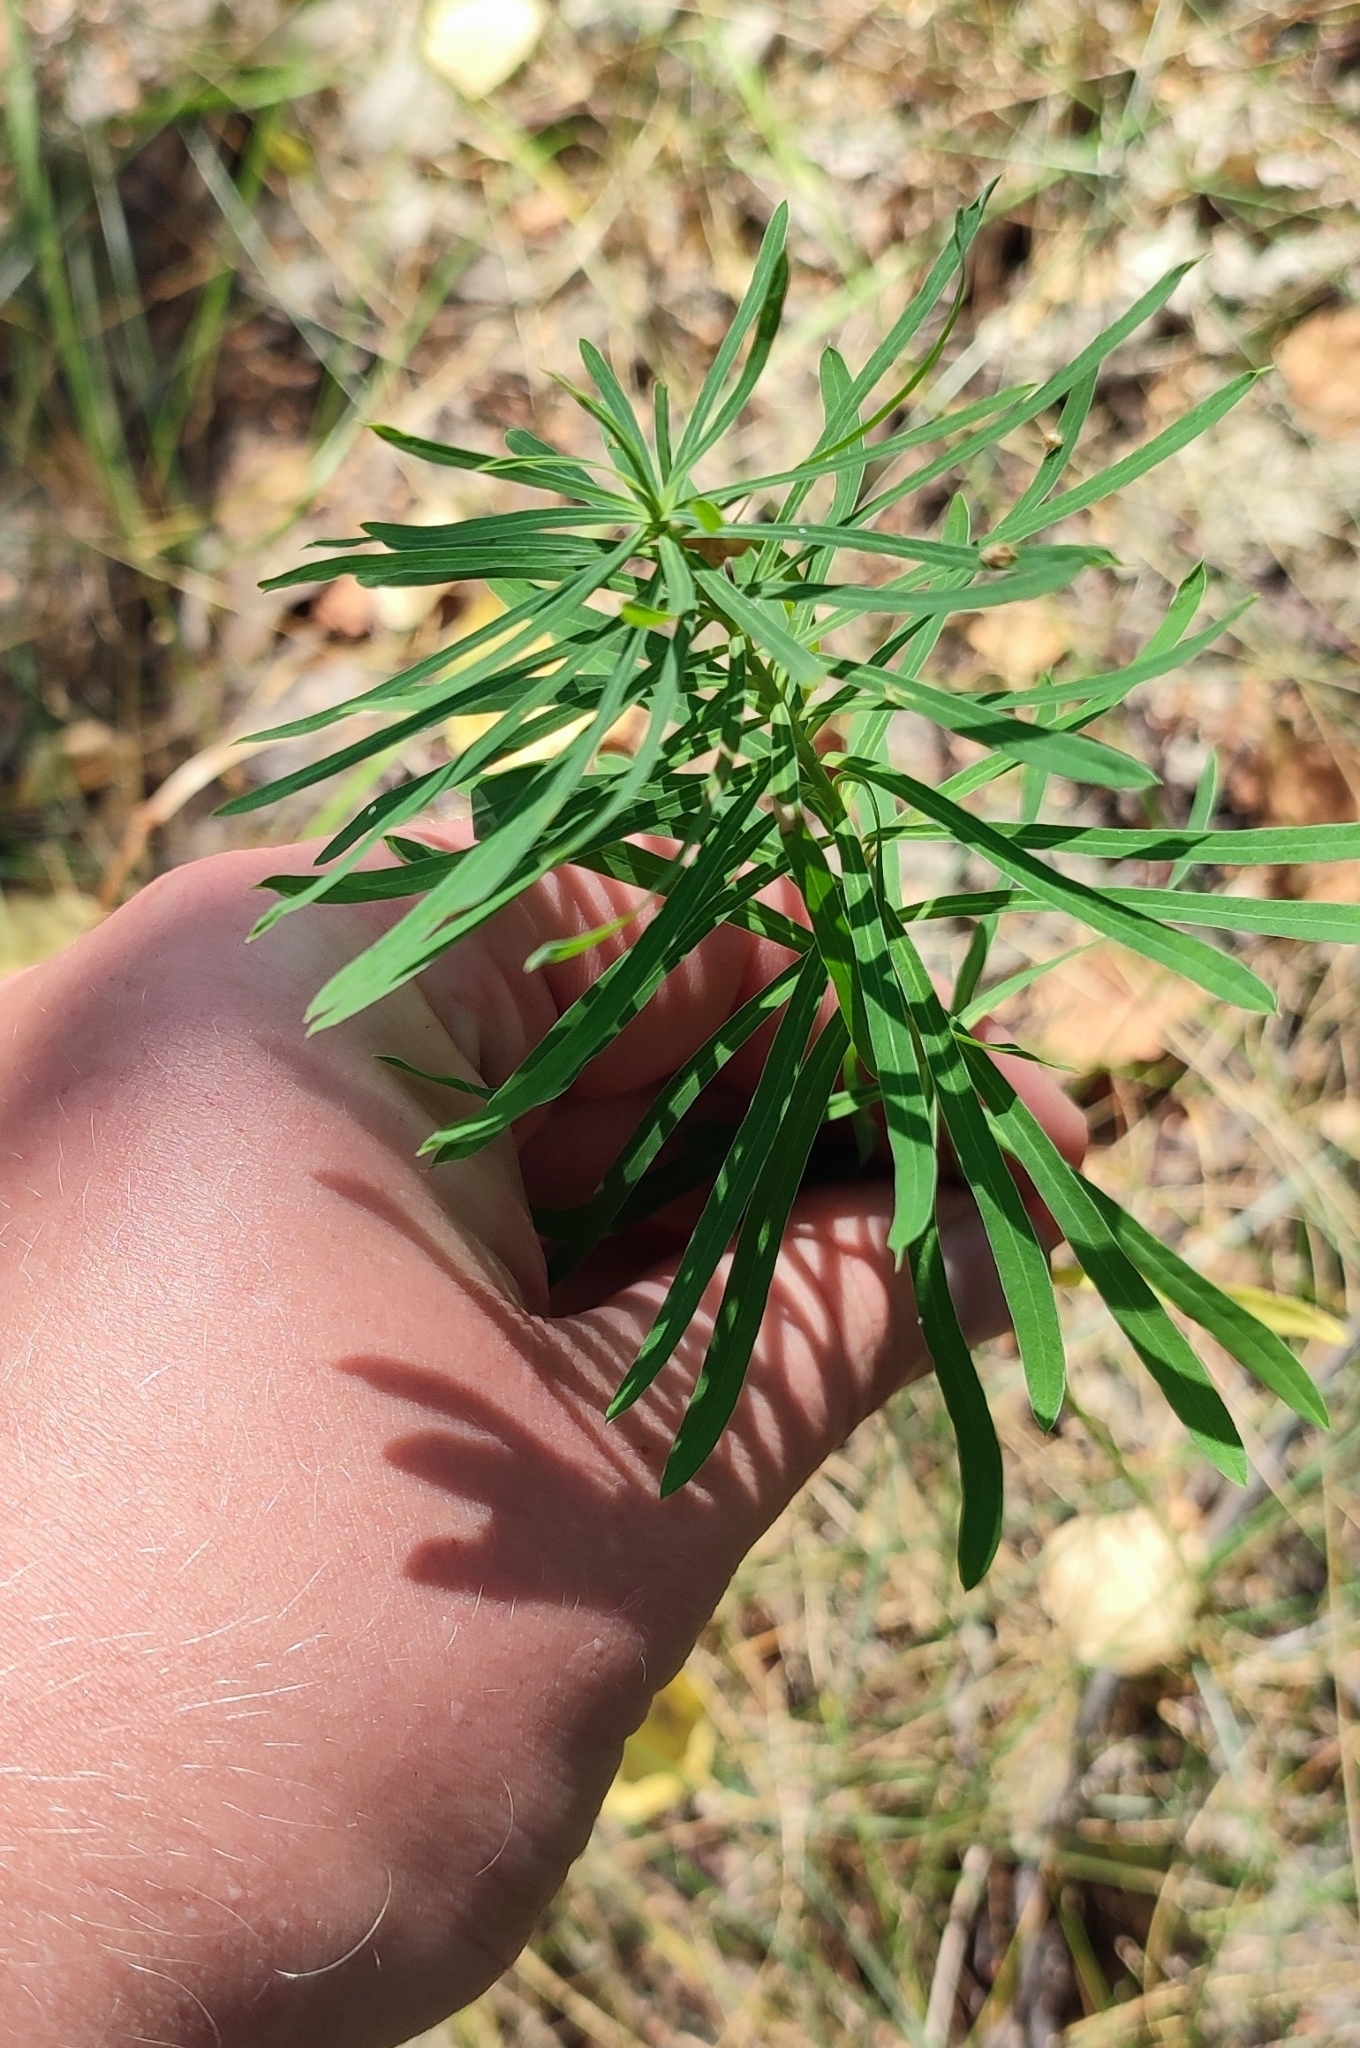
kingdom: Plantae
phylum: Tracheophyta
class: Magnoliopsida
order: Malpighiales
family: Euphorbiaceae
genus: Euphorbia
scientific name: Euphorbia virgata
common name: Leafy spurge
